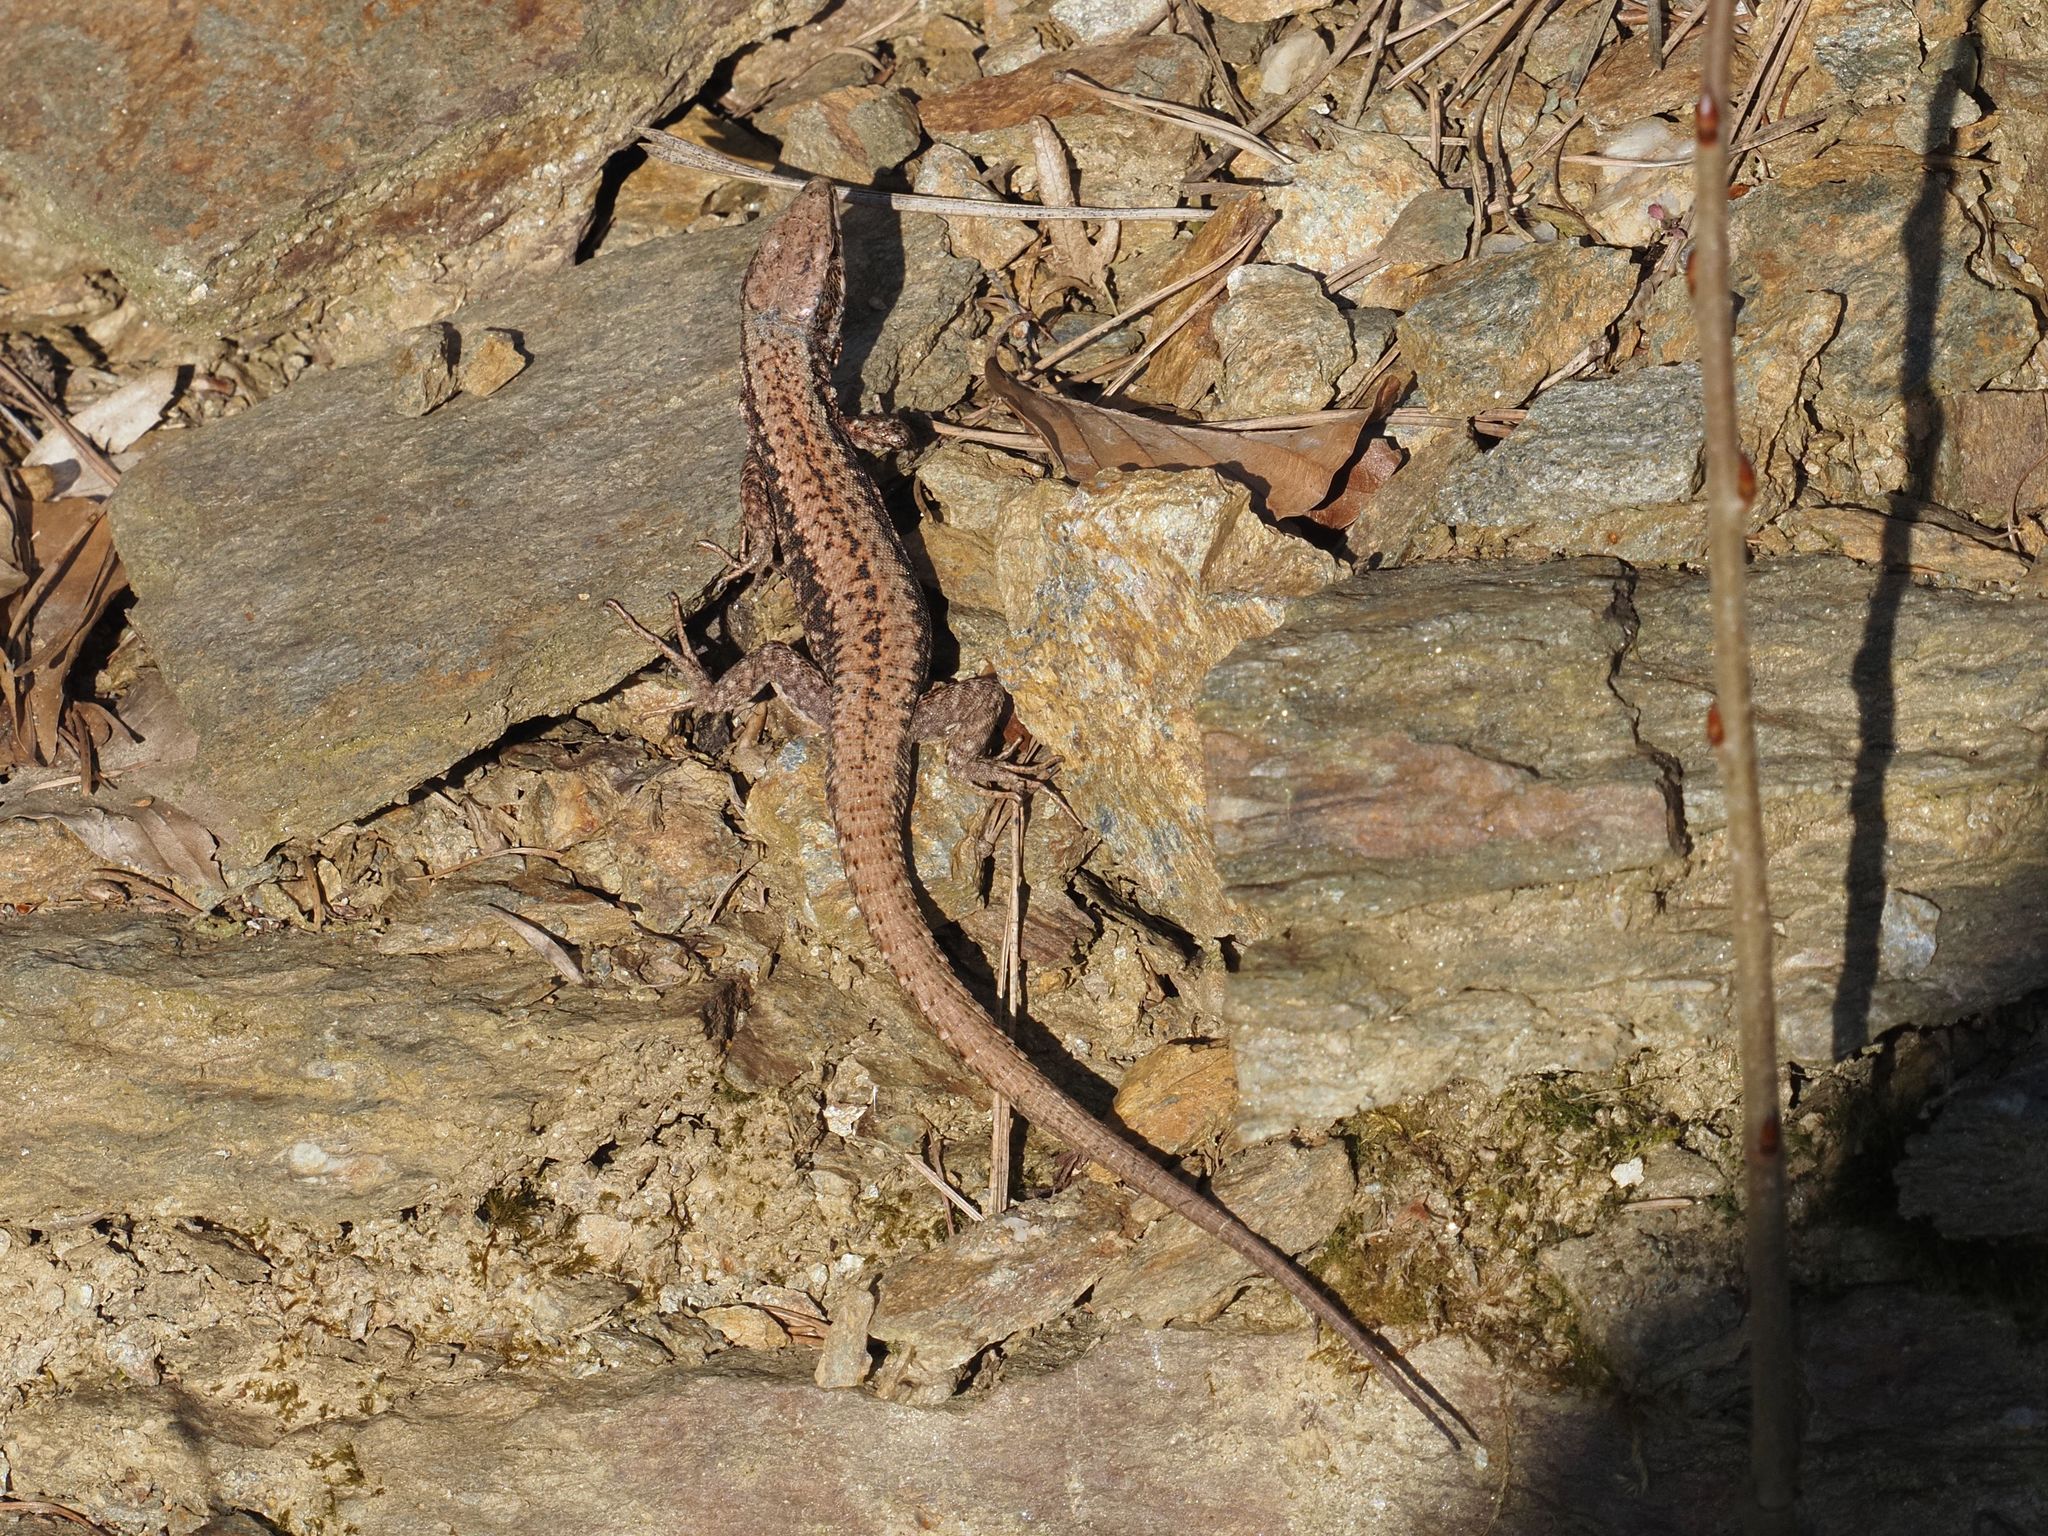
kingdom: Animalia
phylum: Chordata
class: Squamata
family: Lacertidae
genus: Podarcis
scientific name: Podarcis muralis
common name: Common wall lizard
